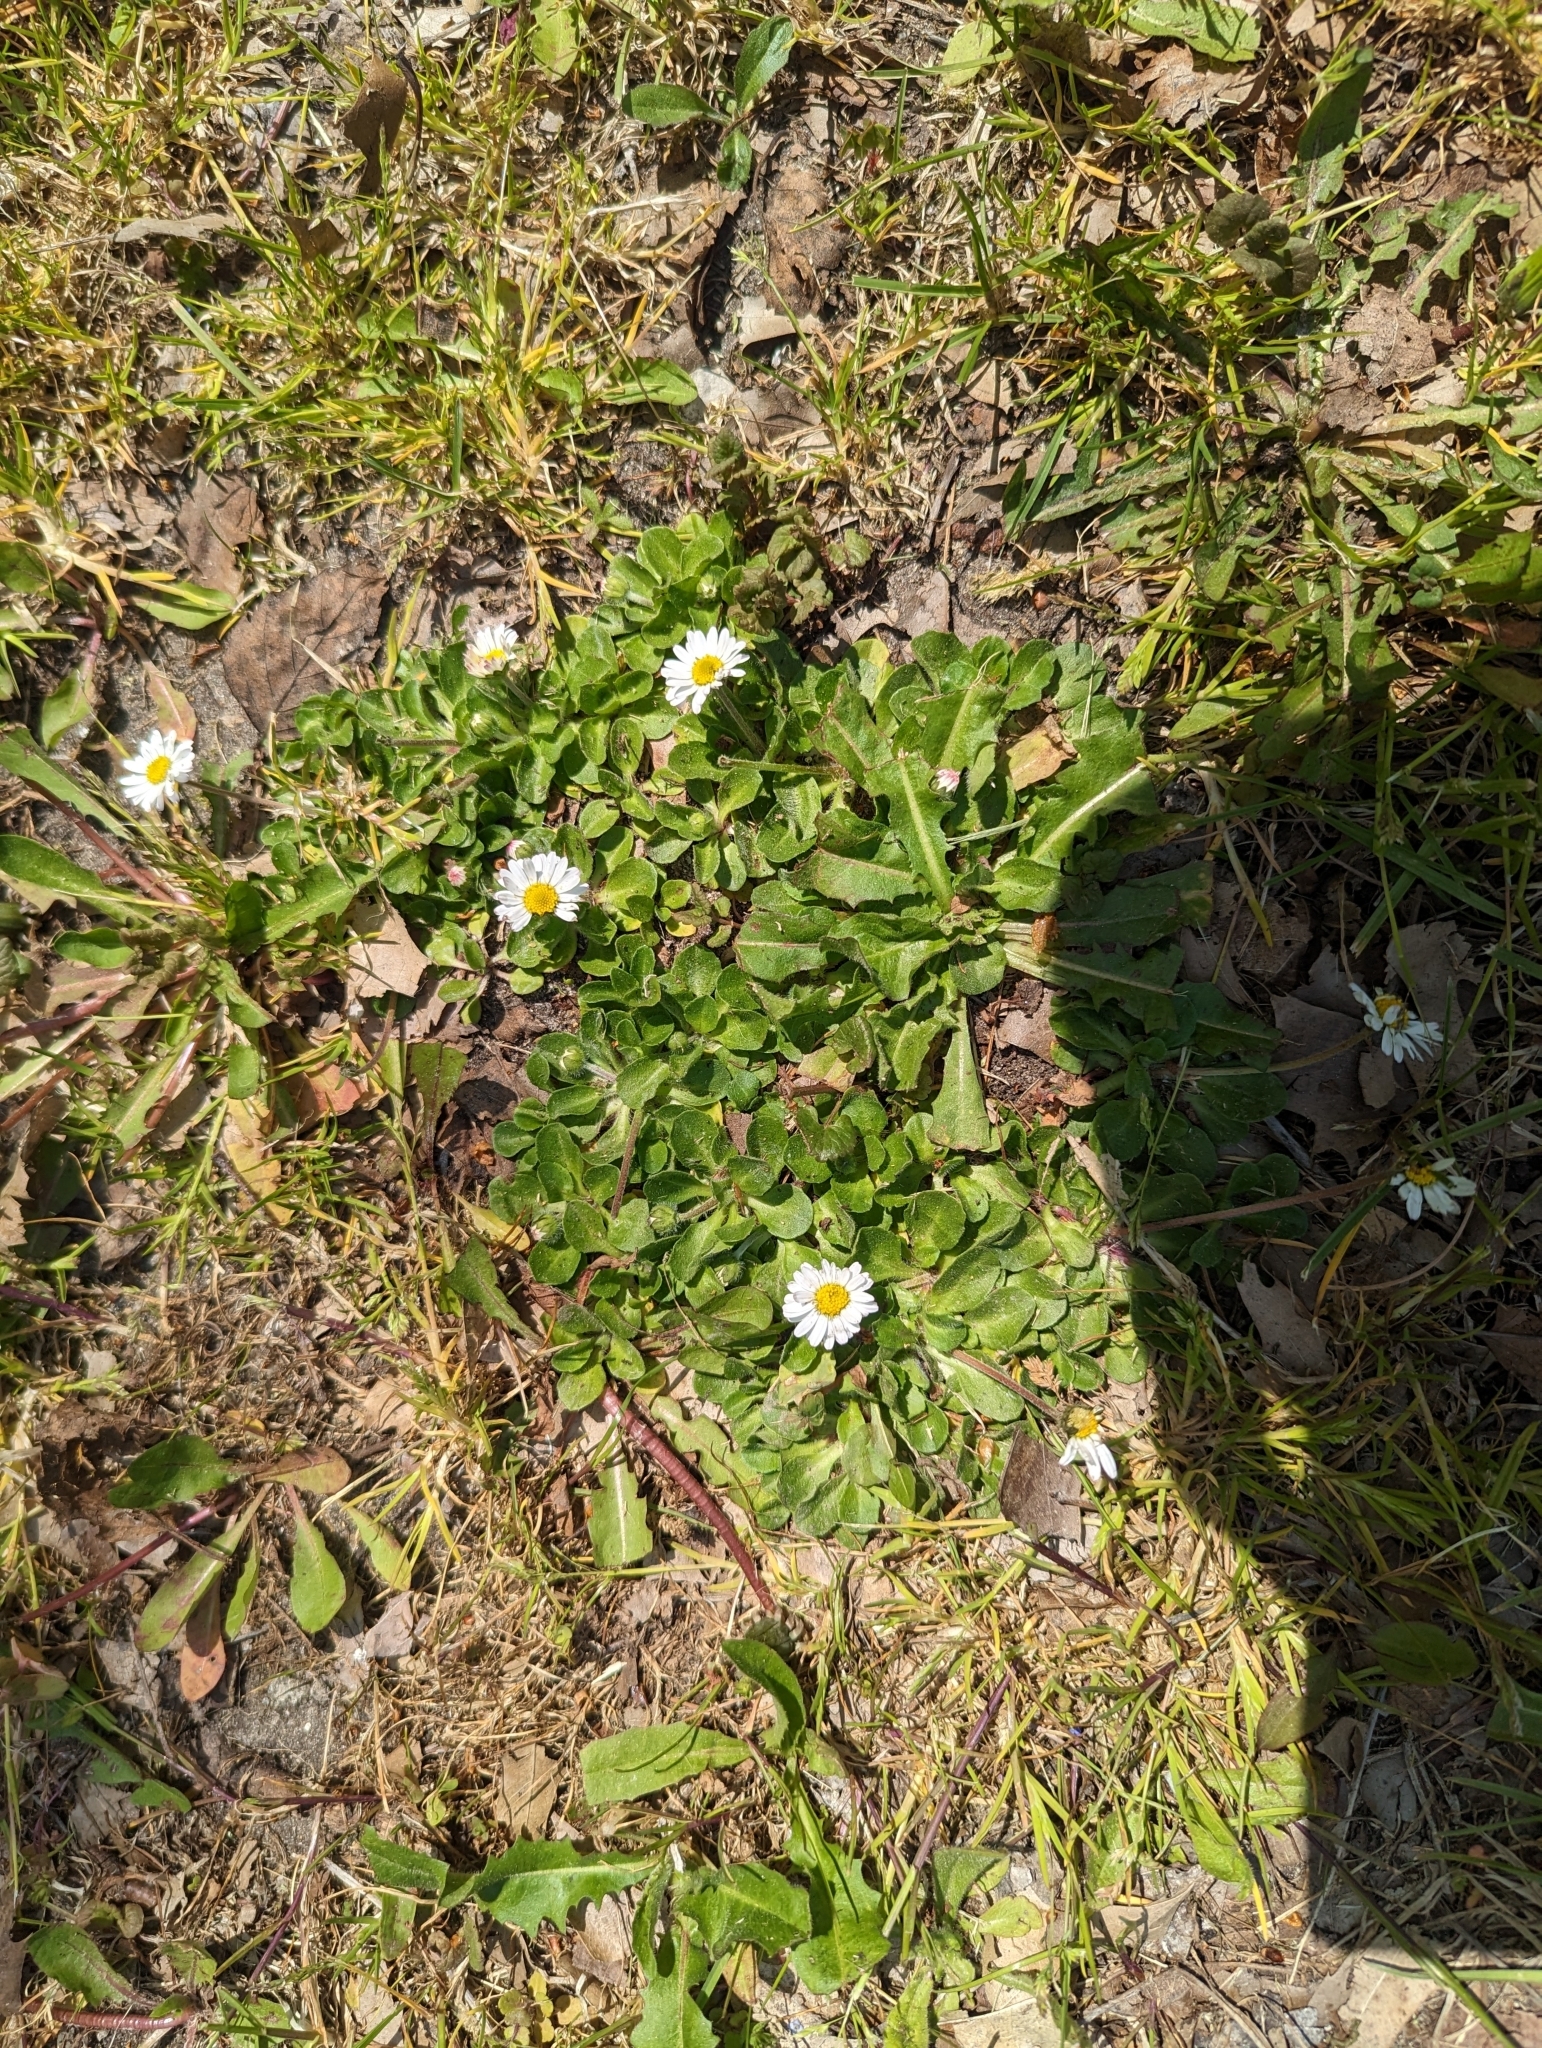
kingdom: Plantae
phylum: Tracheophyta
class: Magnoliopsida
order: Asterales
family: Asteraceae
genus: Bellis
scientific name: Bellis perennis
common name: Lawndaisy
